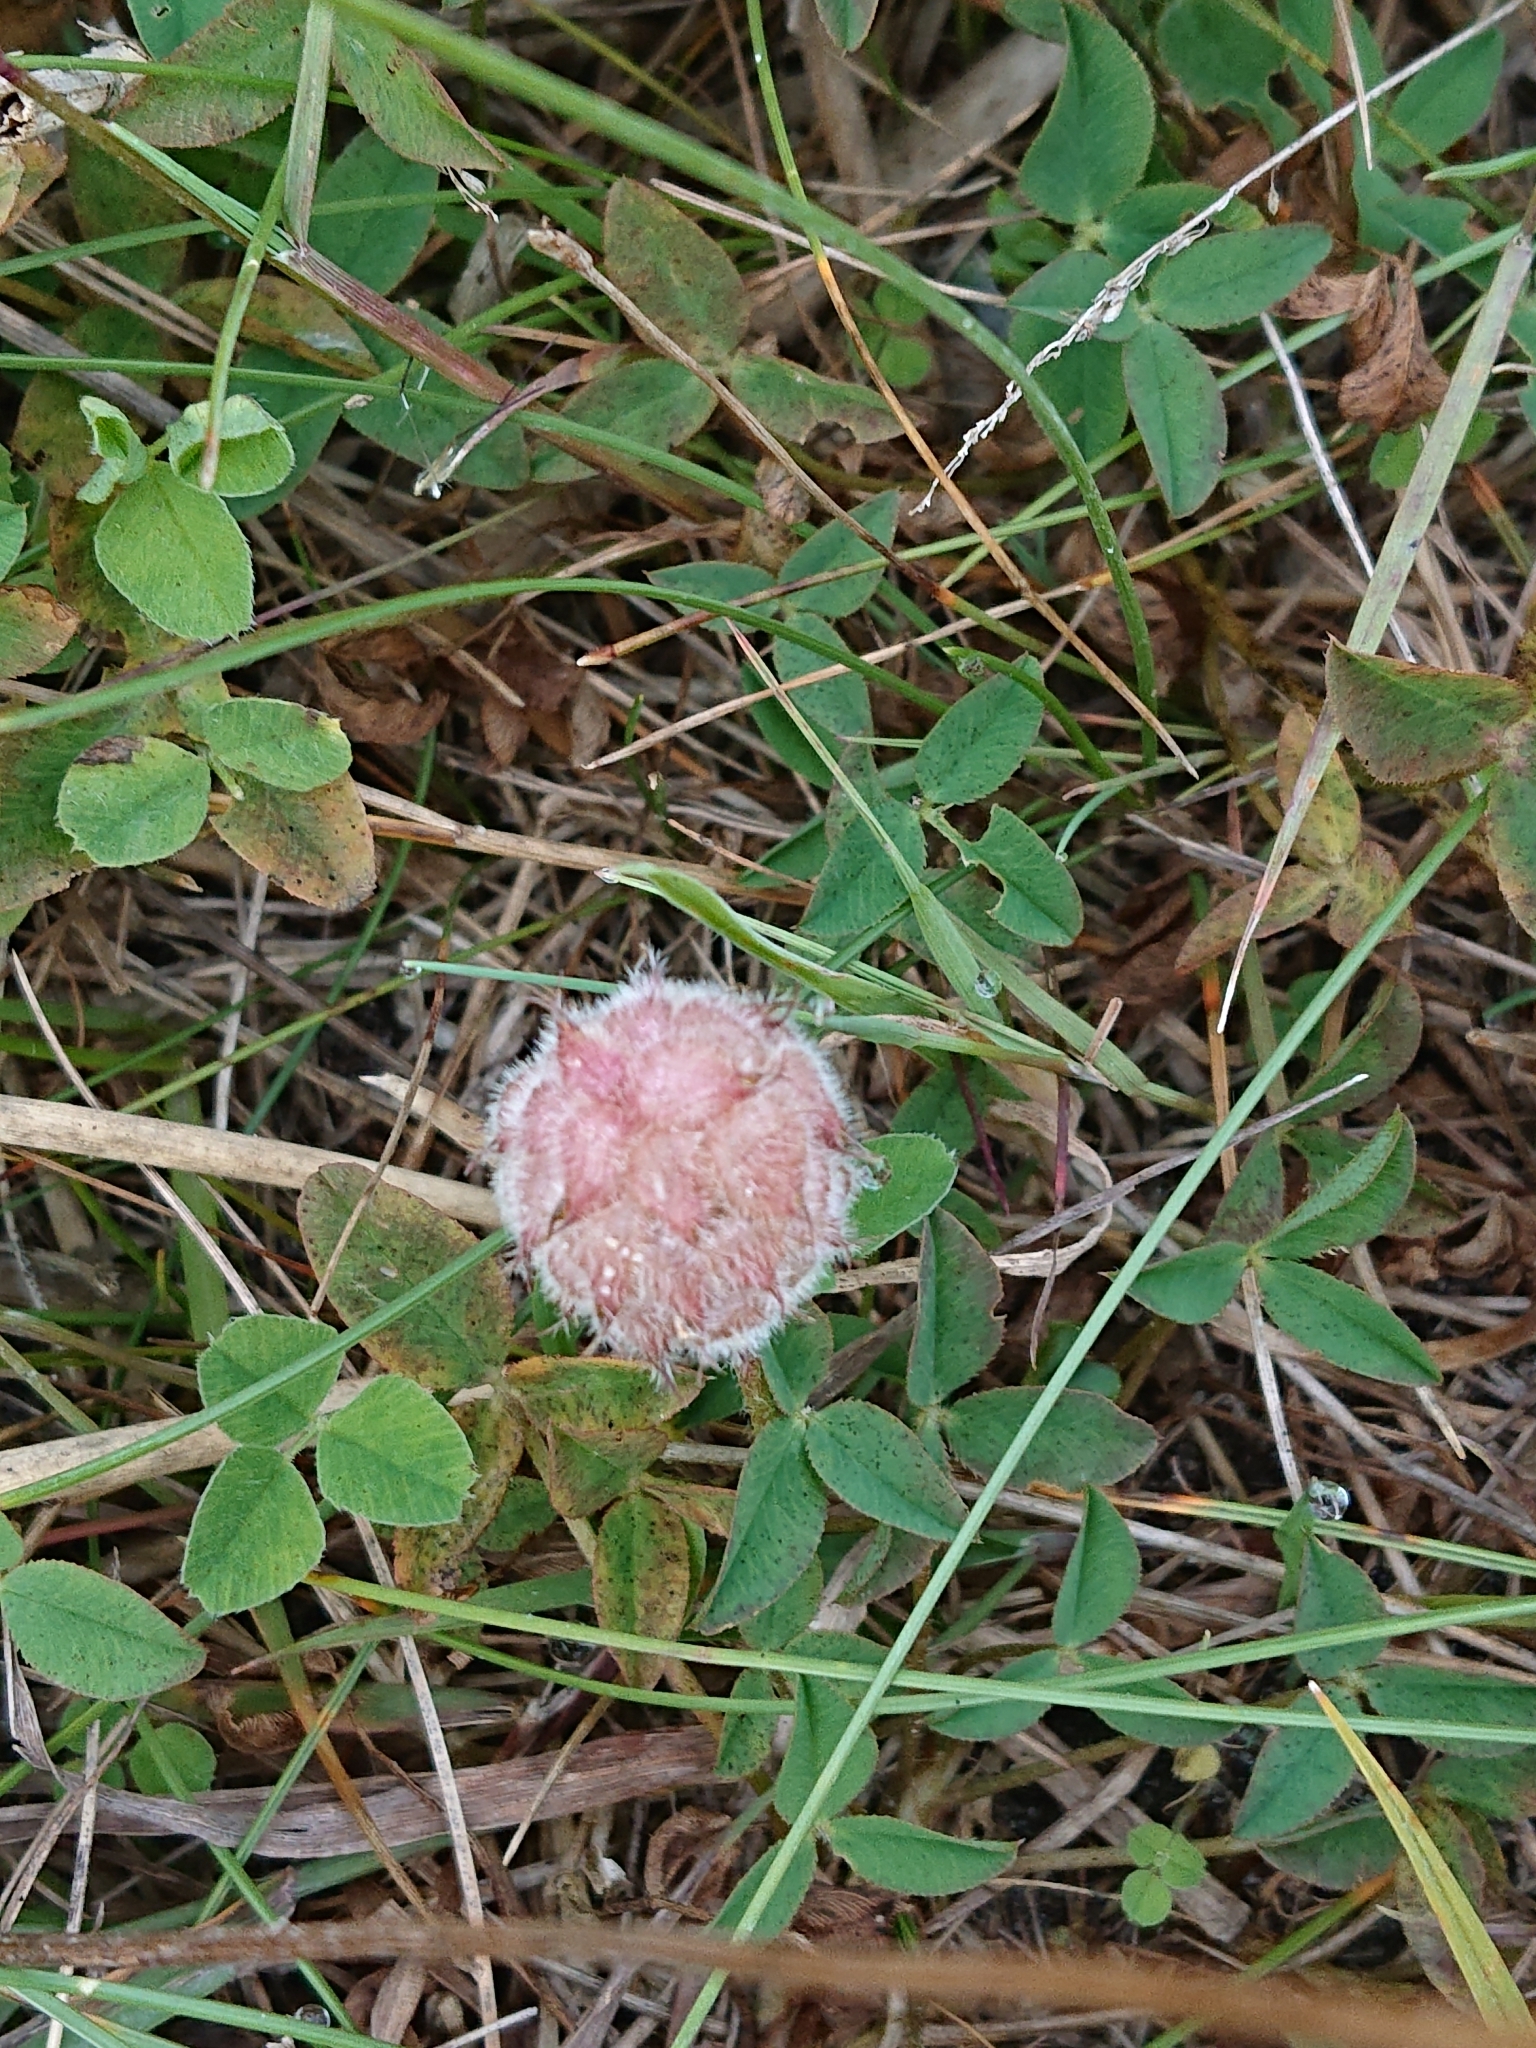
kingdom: Plantae
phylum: Tracheophyta
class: Magnoliopsida
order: Fabales
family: Fabaceae
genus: Trifolium
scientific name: Trifolium fragiferum
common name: Strawberry clover
